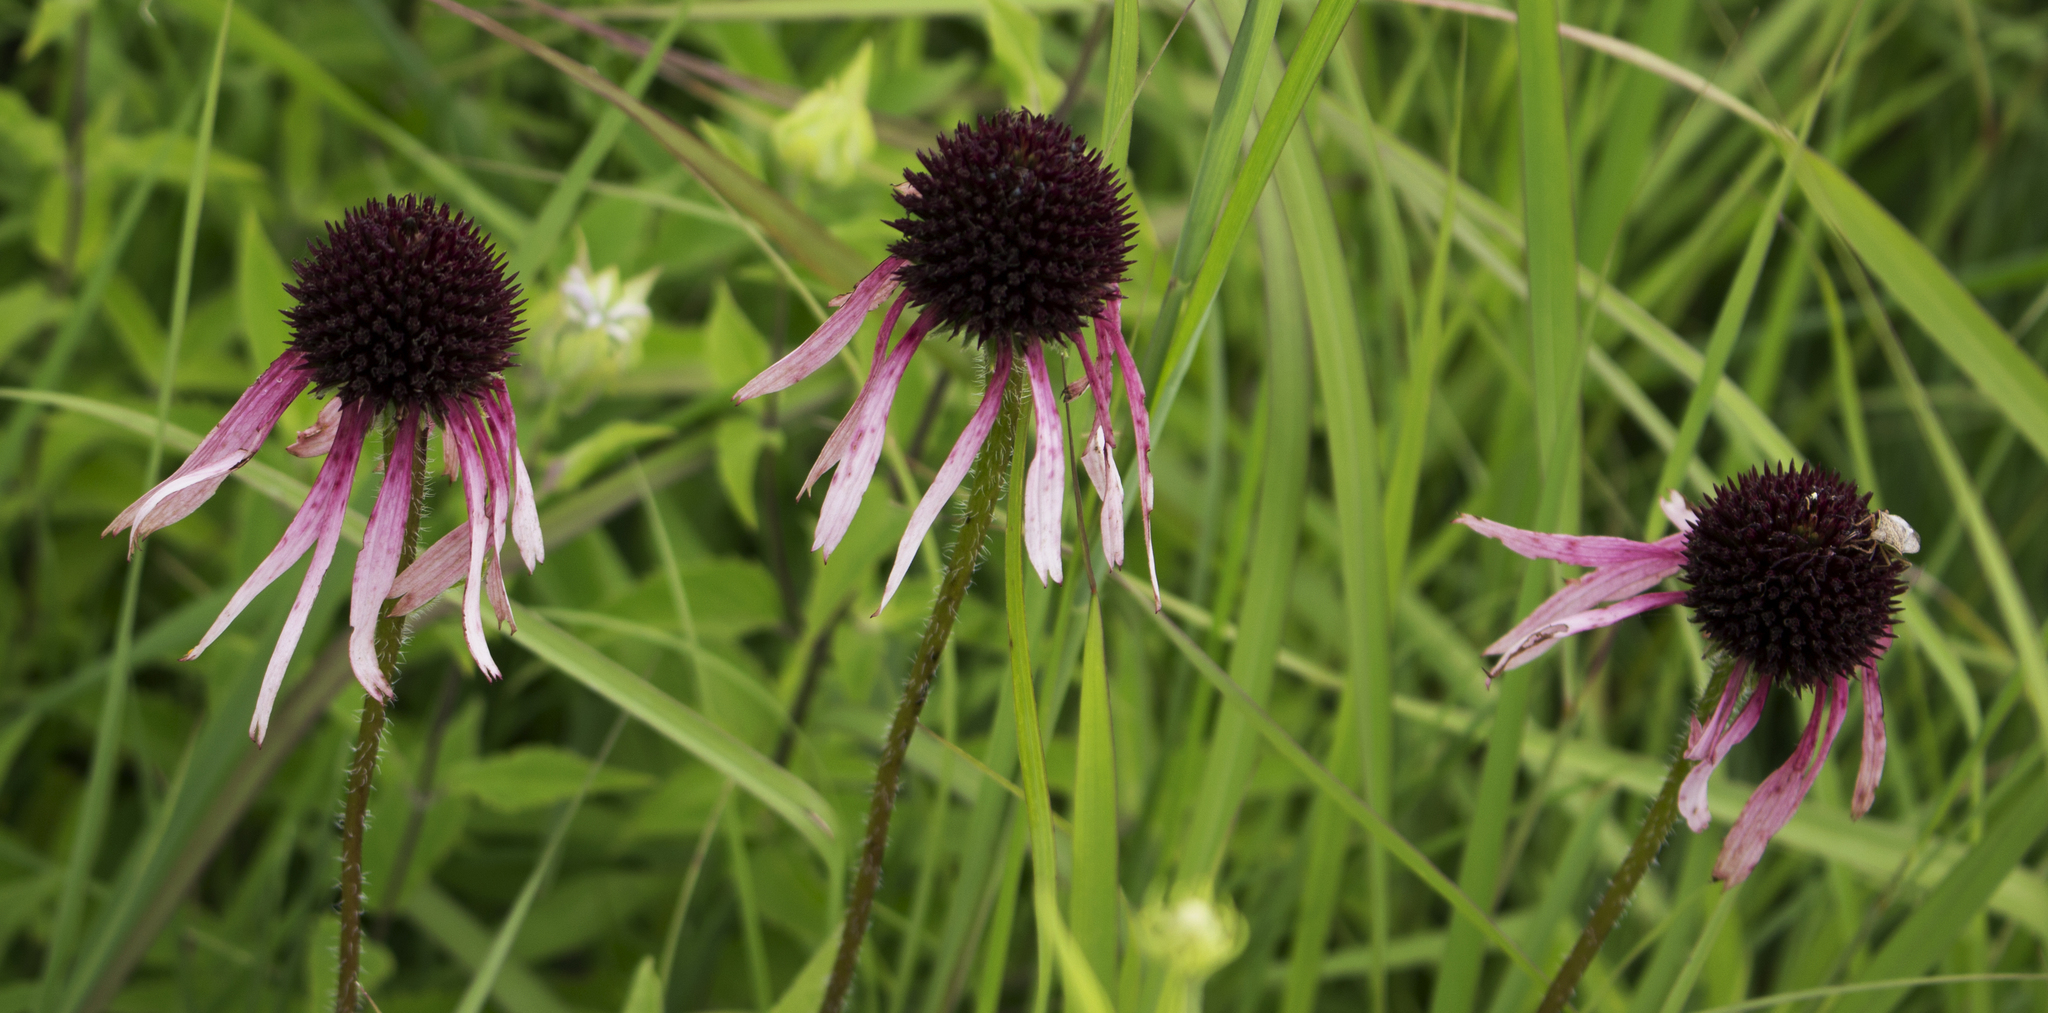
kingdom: Plantae
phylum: Tracheophyta
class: Magnoliopsida
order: Asterales
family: Asteraceae
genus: Echinacea
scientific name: Echinacea pallida
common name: Pale echinacea
